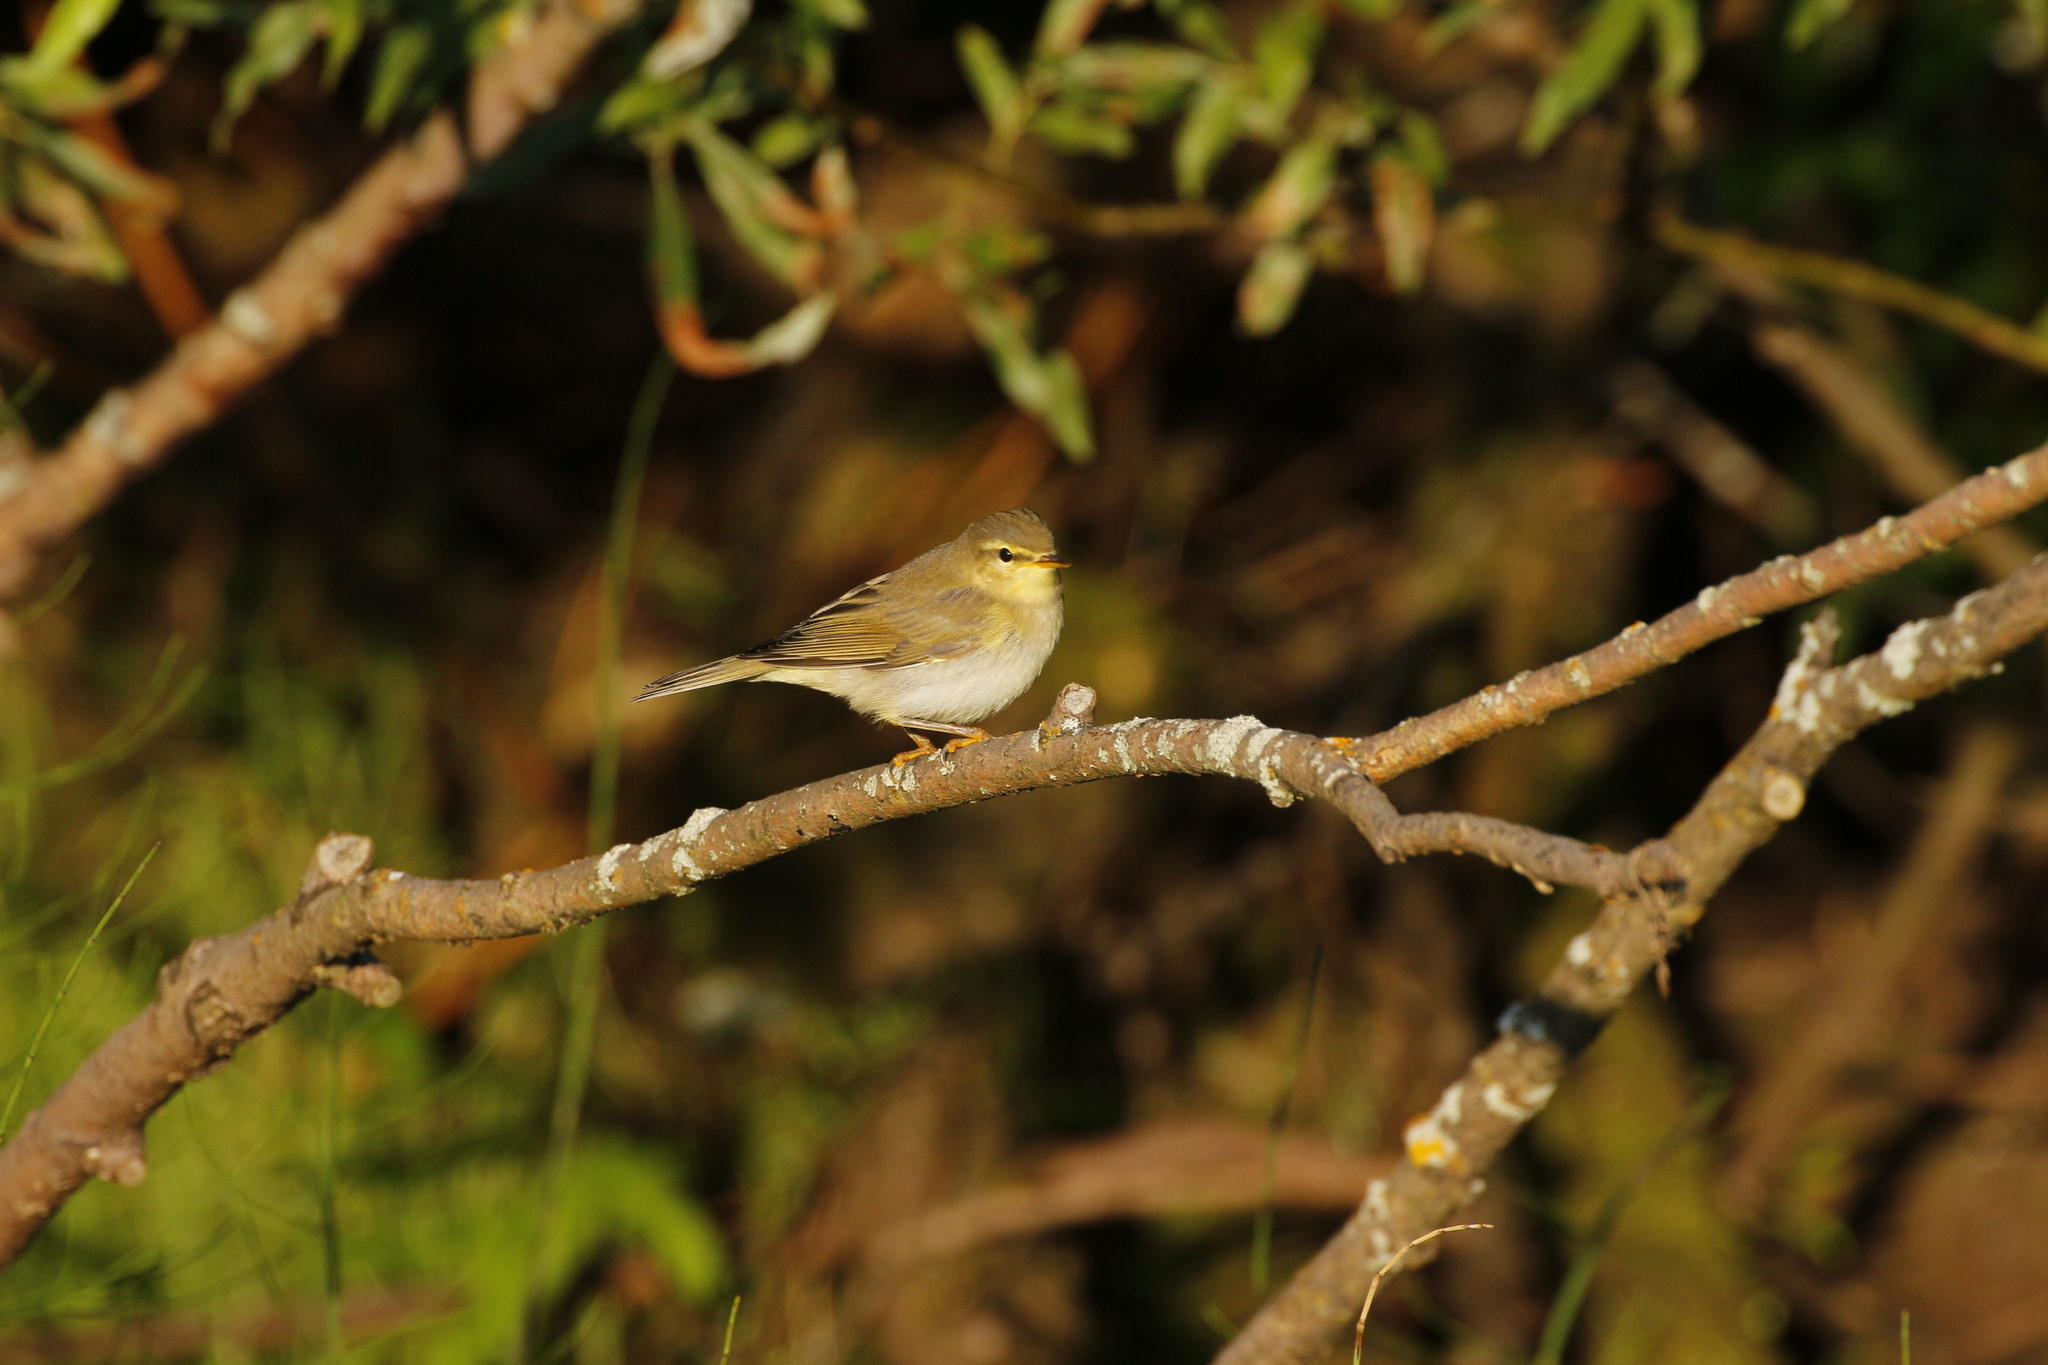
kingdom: Animalia
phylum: Chordata
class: Aves
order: Passeriformes
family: Phylloscopidae
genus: Phylloscopus
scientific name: Phylloscopus trochilus
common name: Willow warbler
